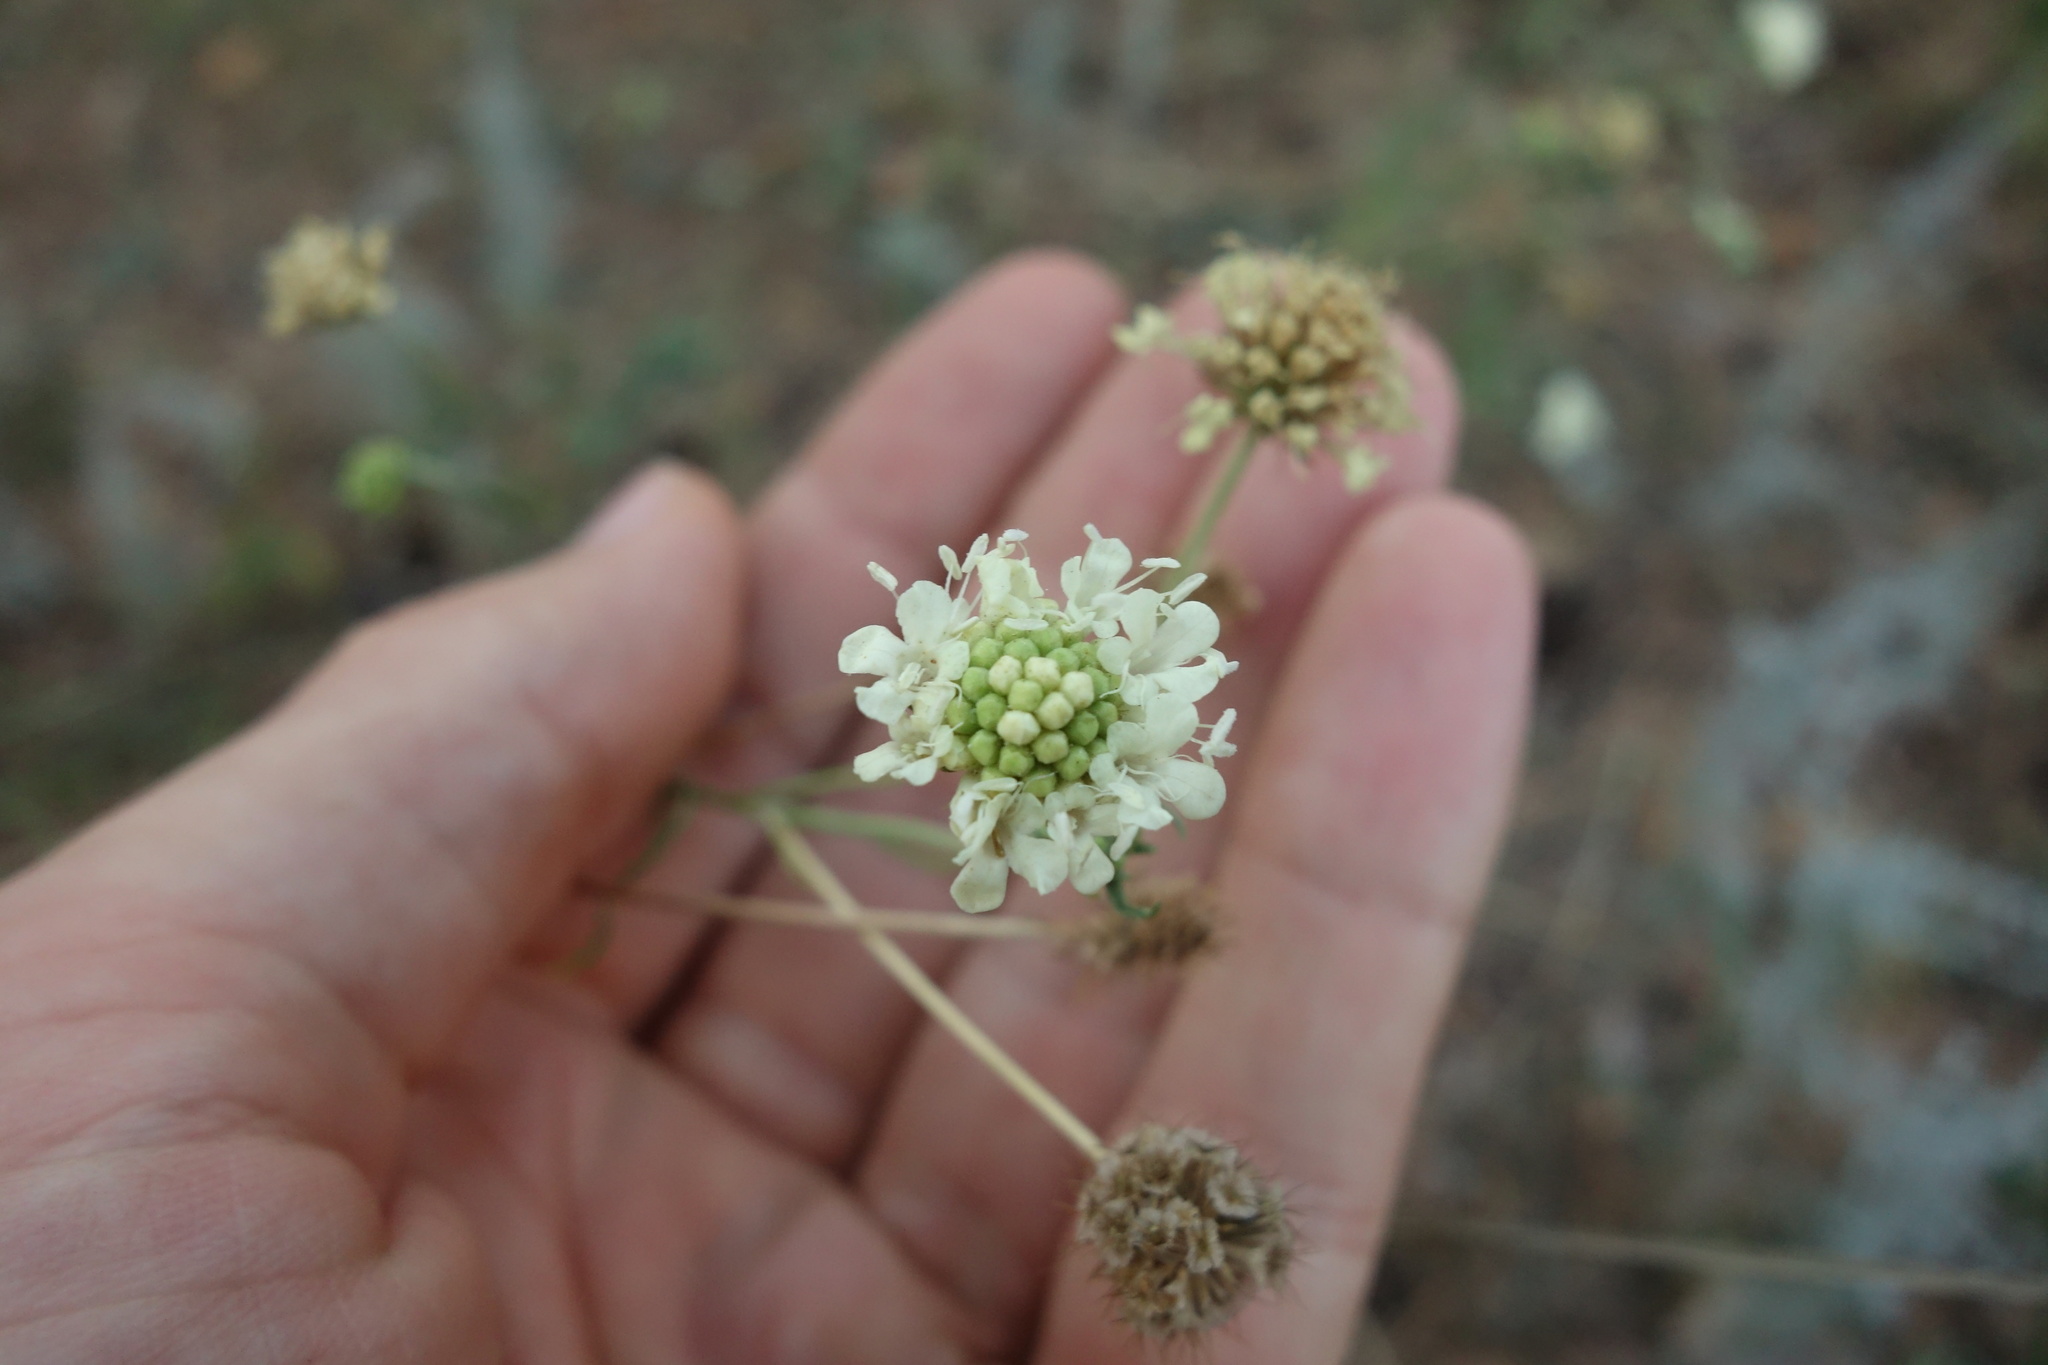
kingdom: Plantae
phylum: Tracheophyta
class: Magnoliopsida
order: Dipsacales
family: Caprifoliaceae
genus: Scabiosa
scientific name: Scabiosa ochroleuca
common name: Cream pincushions
